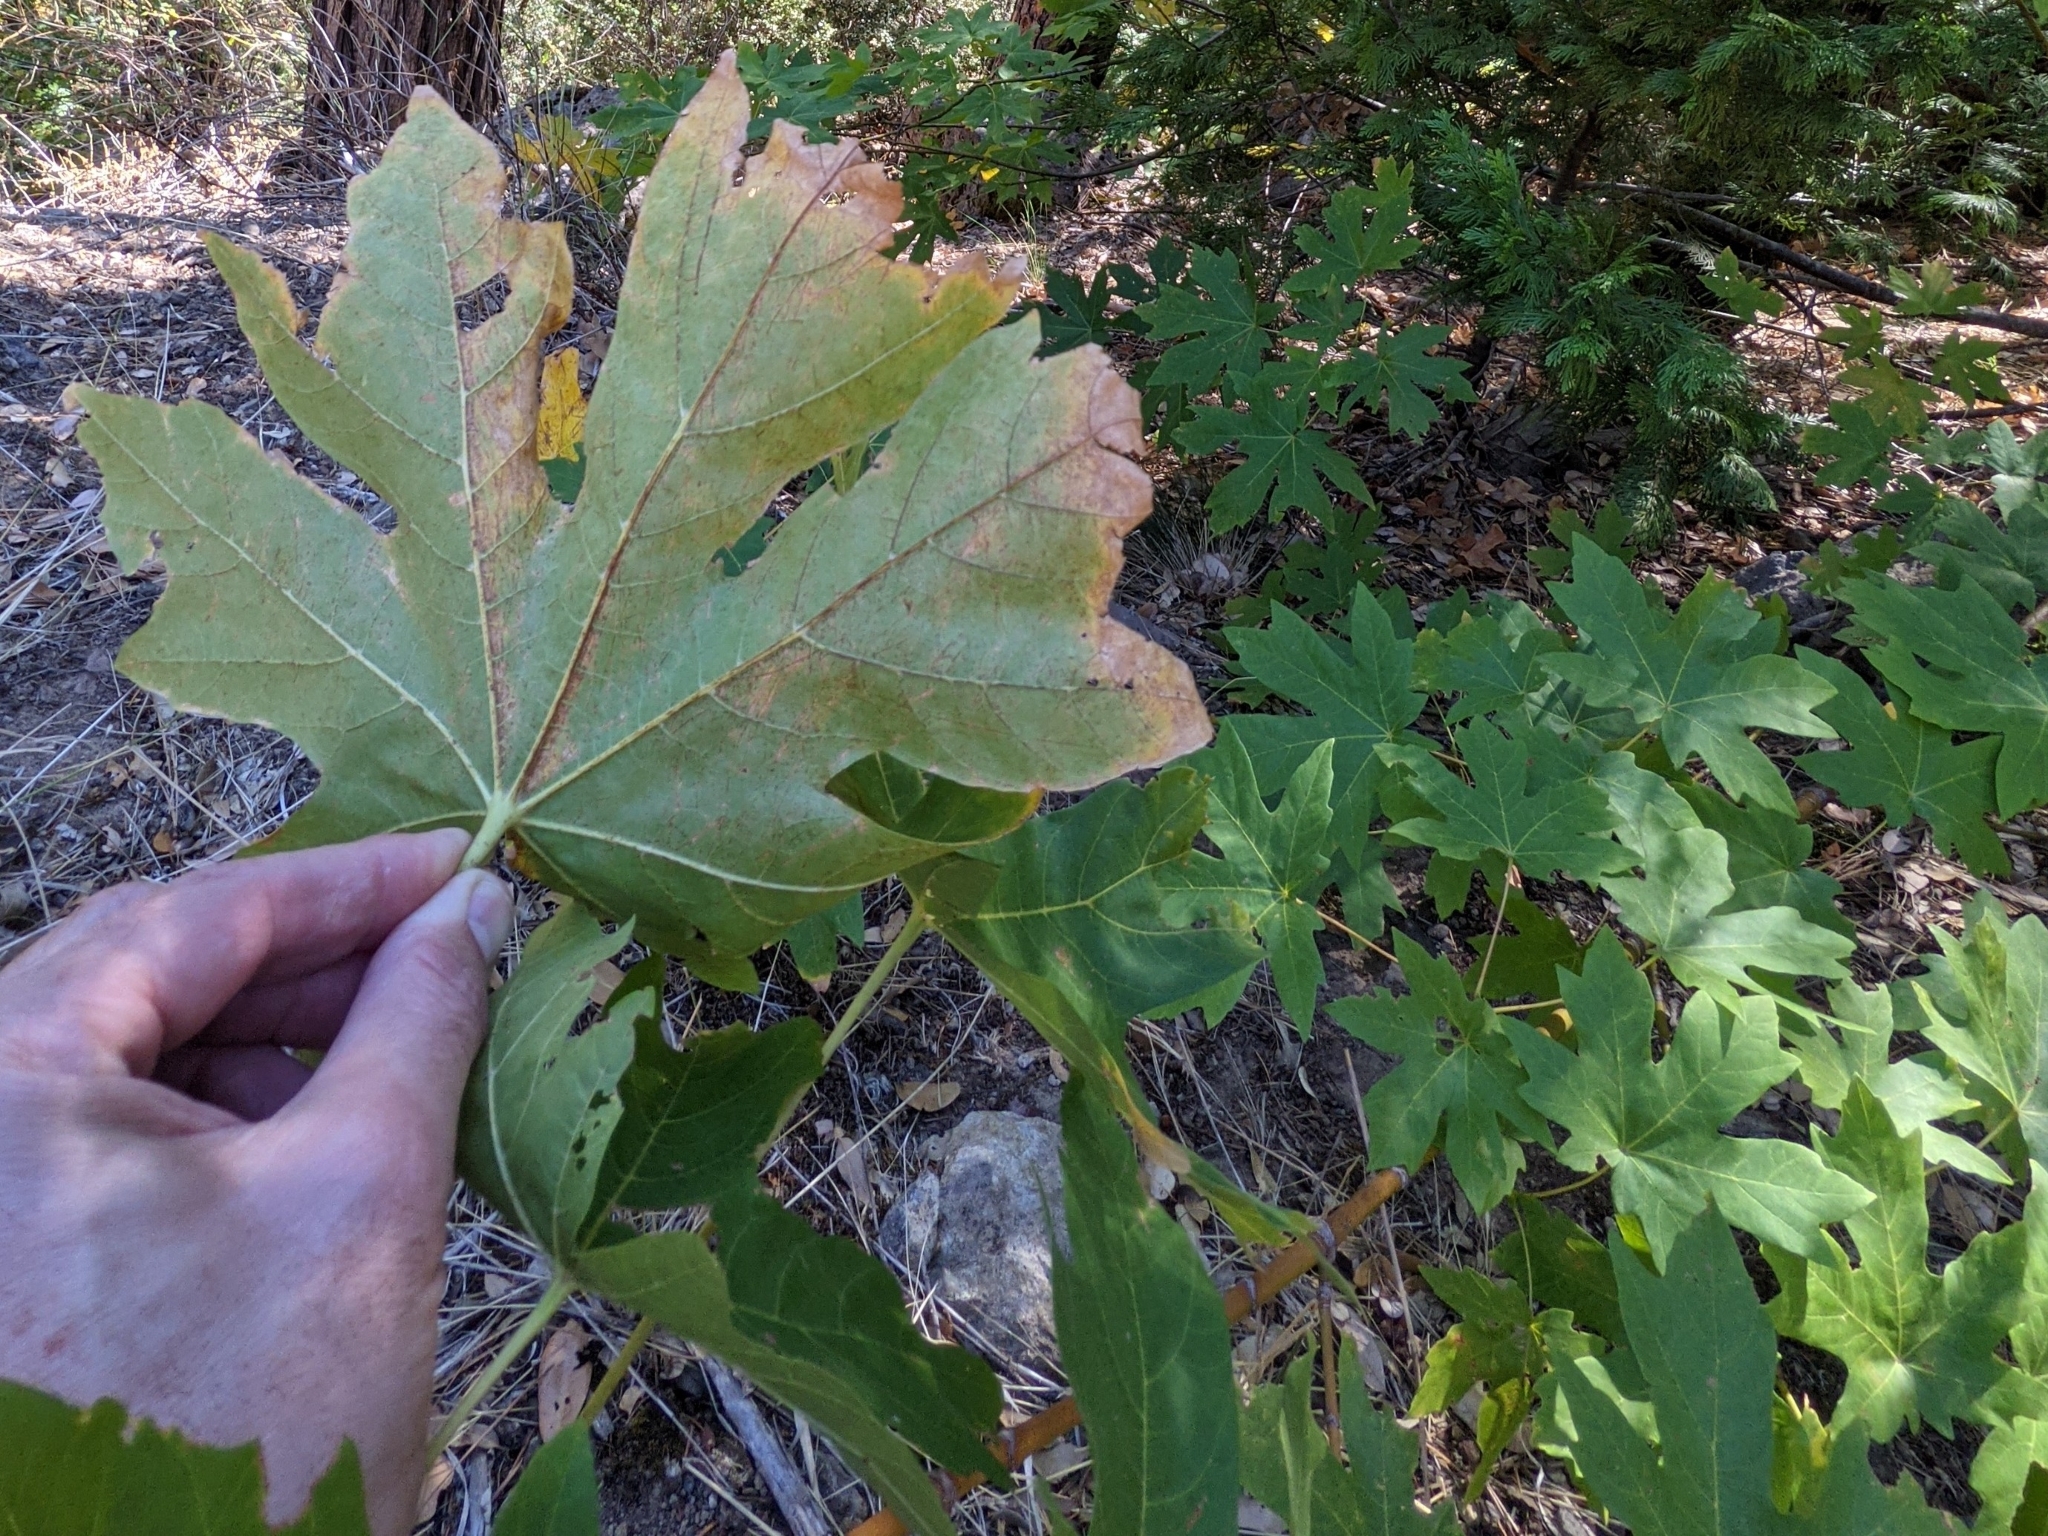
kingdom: Plantae
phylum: Tracheophyta
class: Magnoliopsida
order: Sapindales
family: Sapindaceae
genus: Acer
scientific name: Acer macrophyllum
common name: Oregon maple
